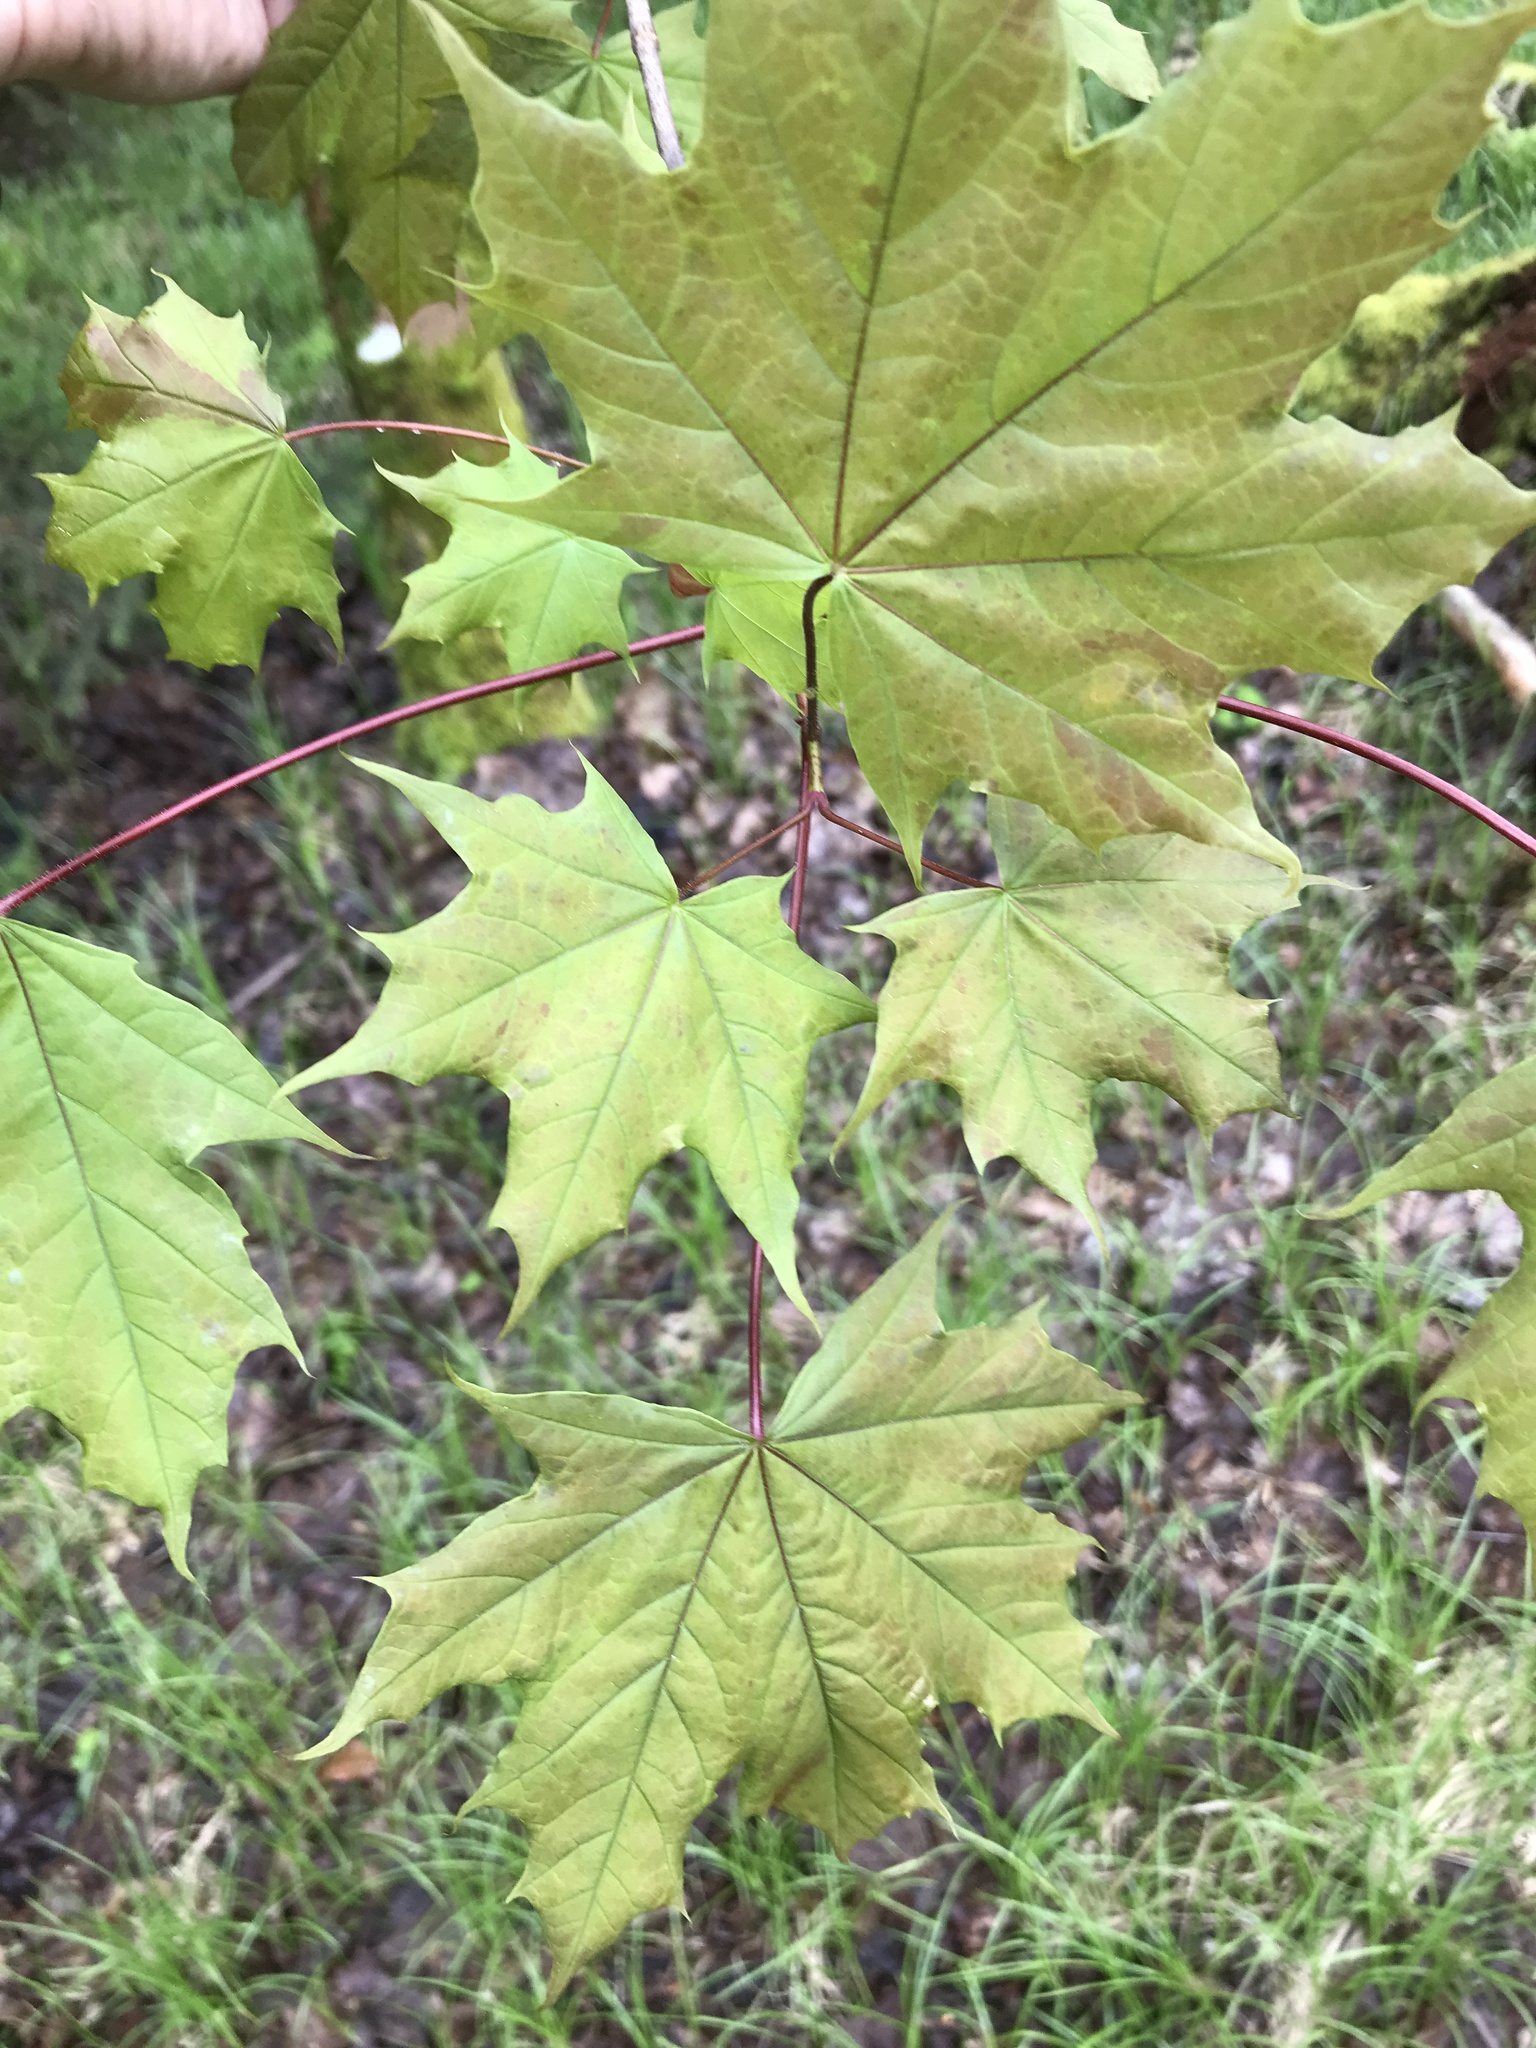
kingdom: Plantae
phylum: Tracheophyta
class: Magnoliopsida
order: Sapindales
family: Sapindaceae
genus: Acer
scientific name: Acer platanoides
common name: Norway maple
